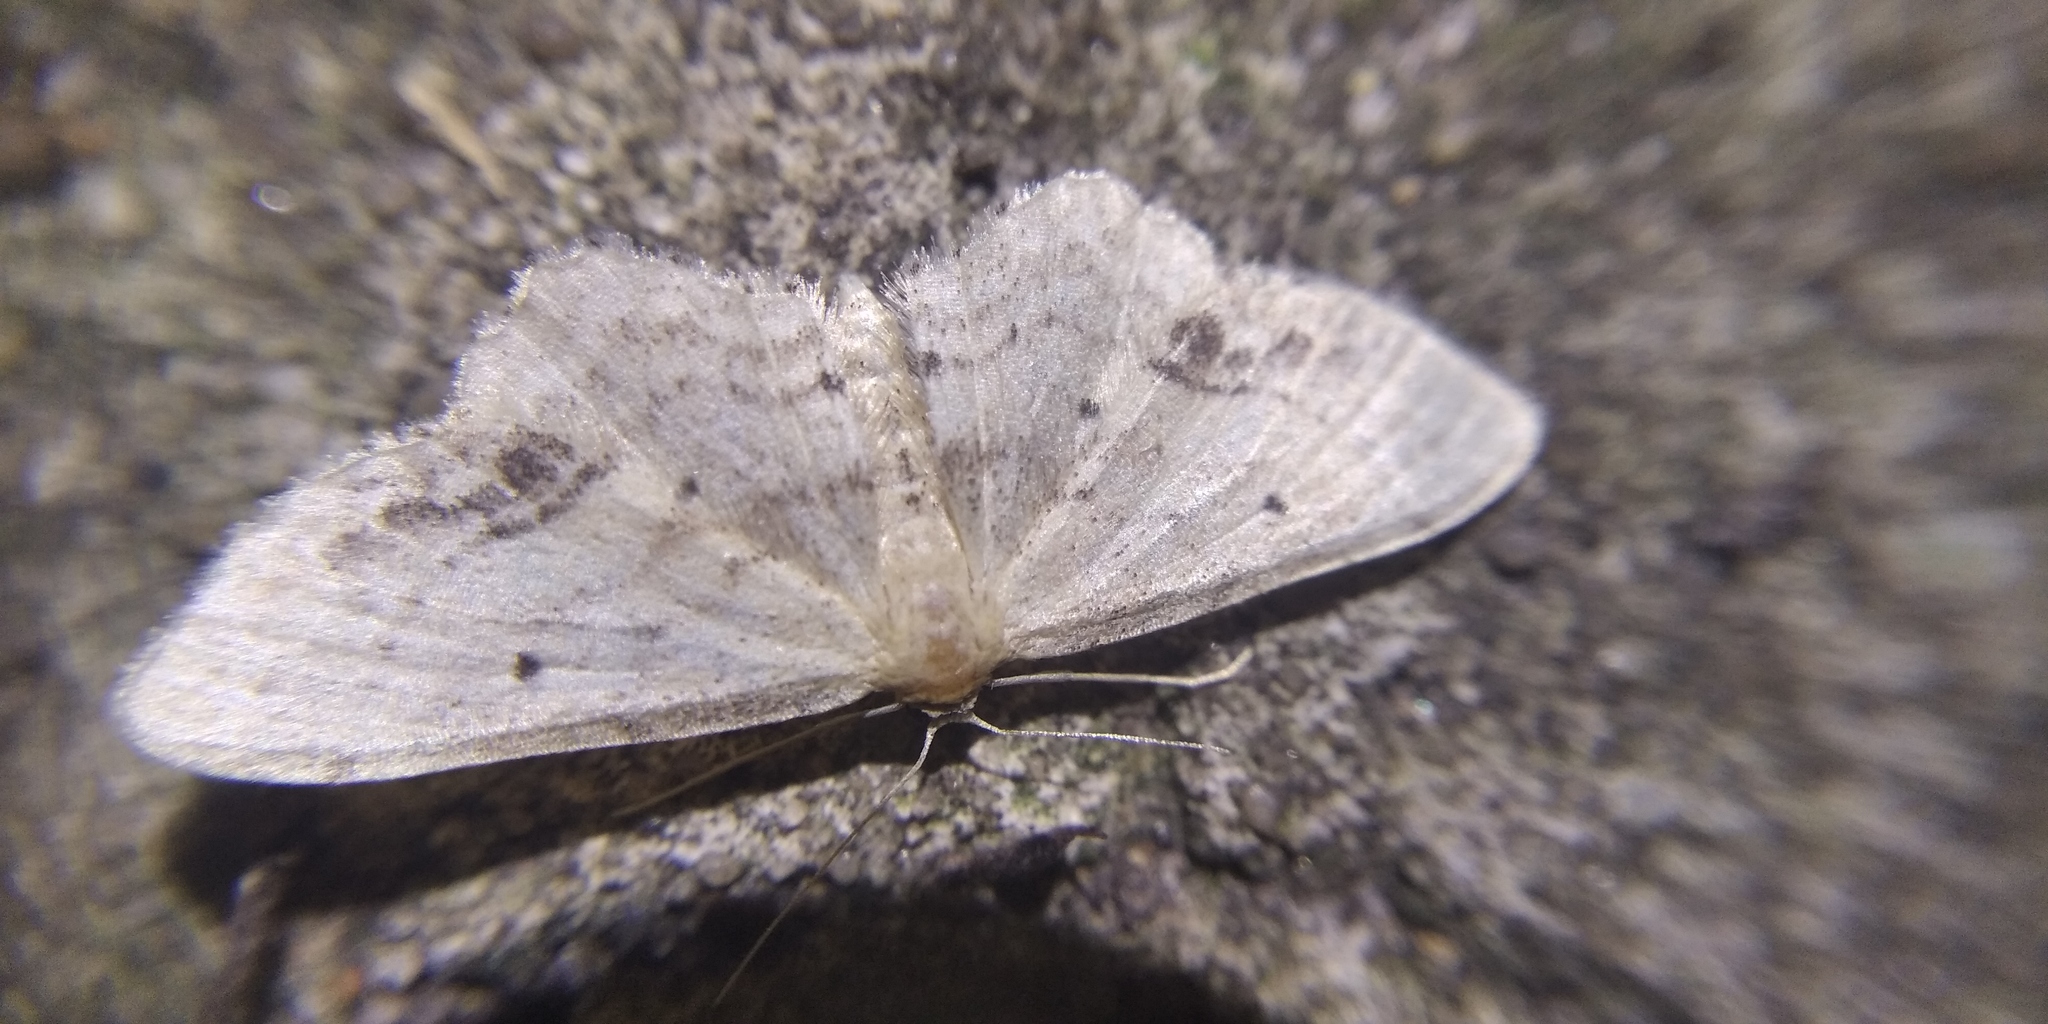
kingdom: Animalia
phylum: Arthropoda
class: Insecta
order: Lepidoptera
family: Geometridae
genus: Idaea
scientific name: Idaea dimidiata
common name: Single-dotted wave
